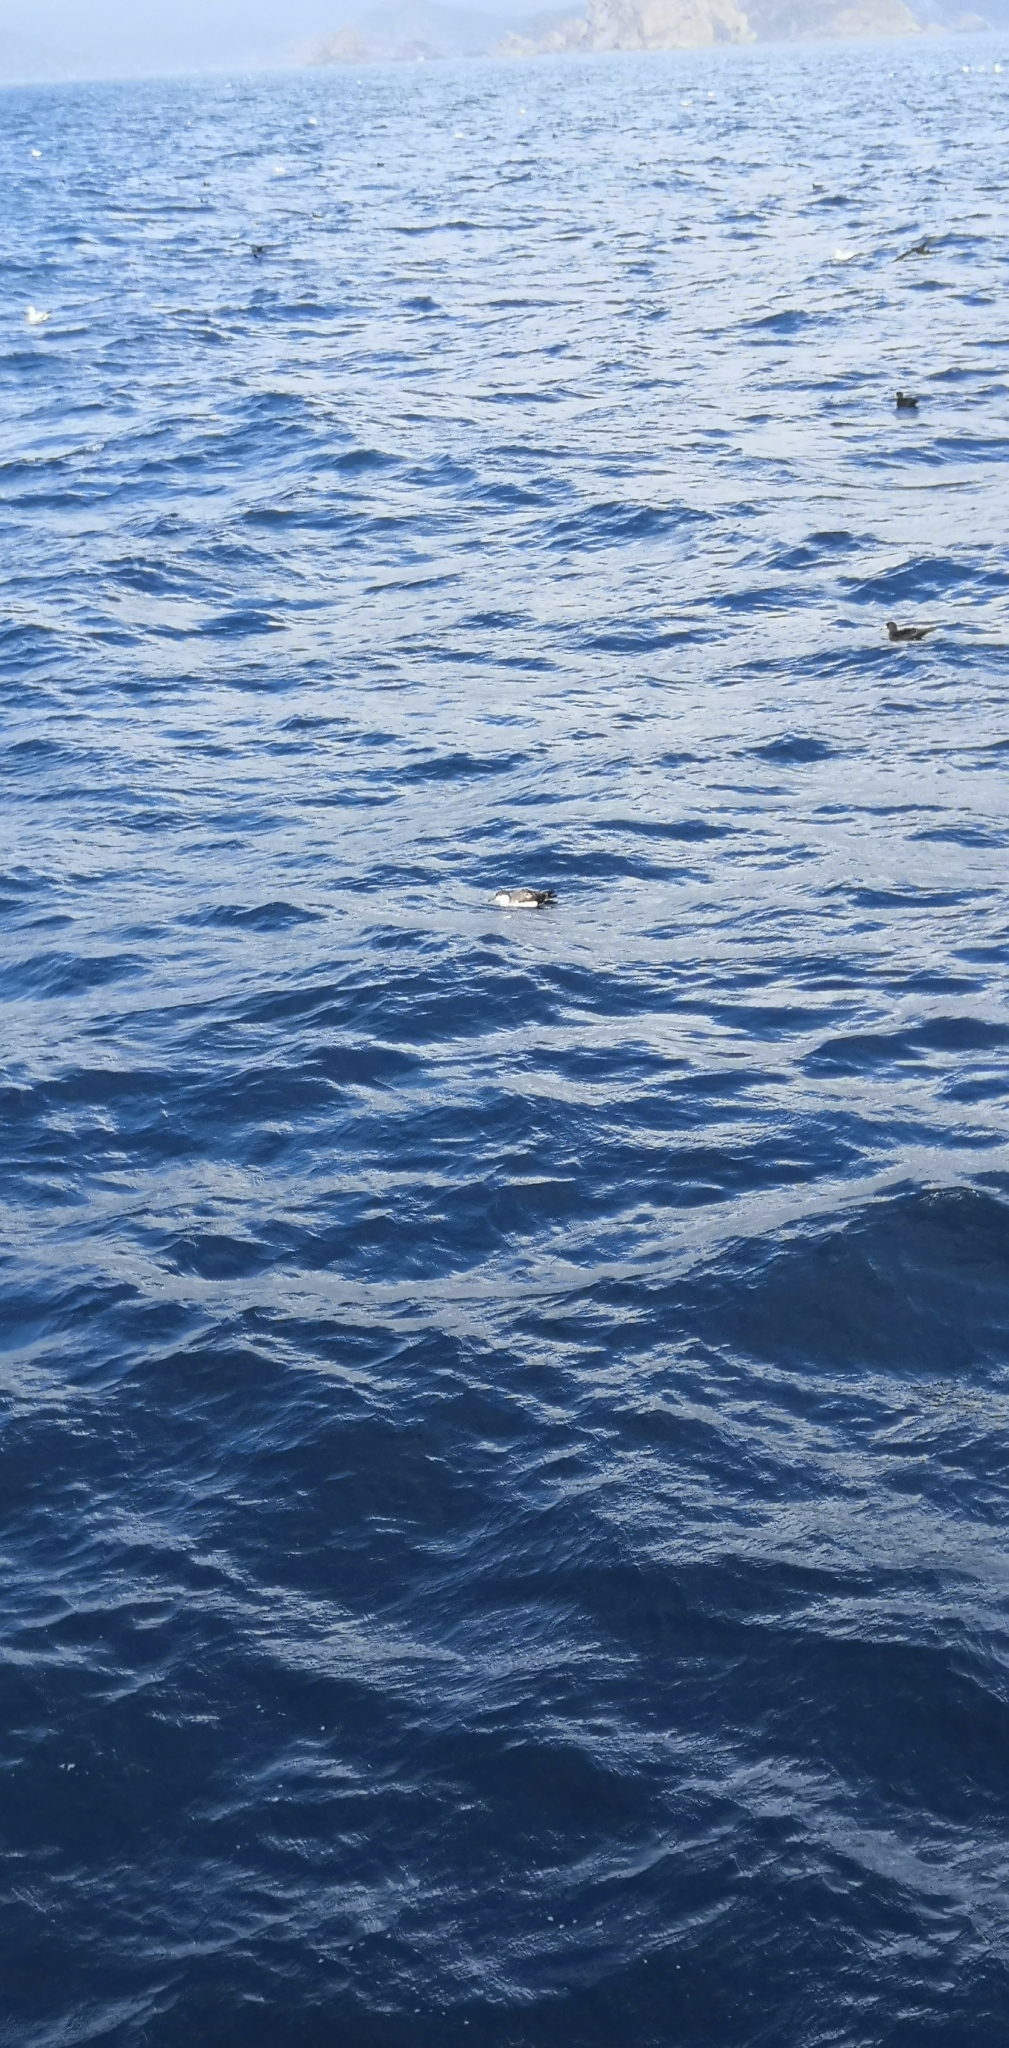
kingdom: Animalia
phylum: Chordata
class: Aves
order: Procellariiformes
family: Procellariidae
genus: Puffinus
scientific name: Puffinus bulleri
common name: Buller's shearwater
